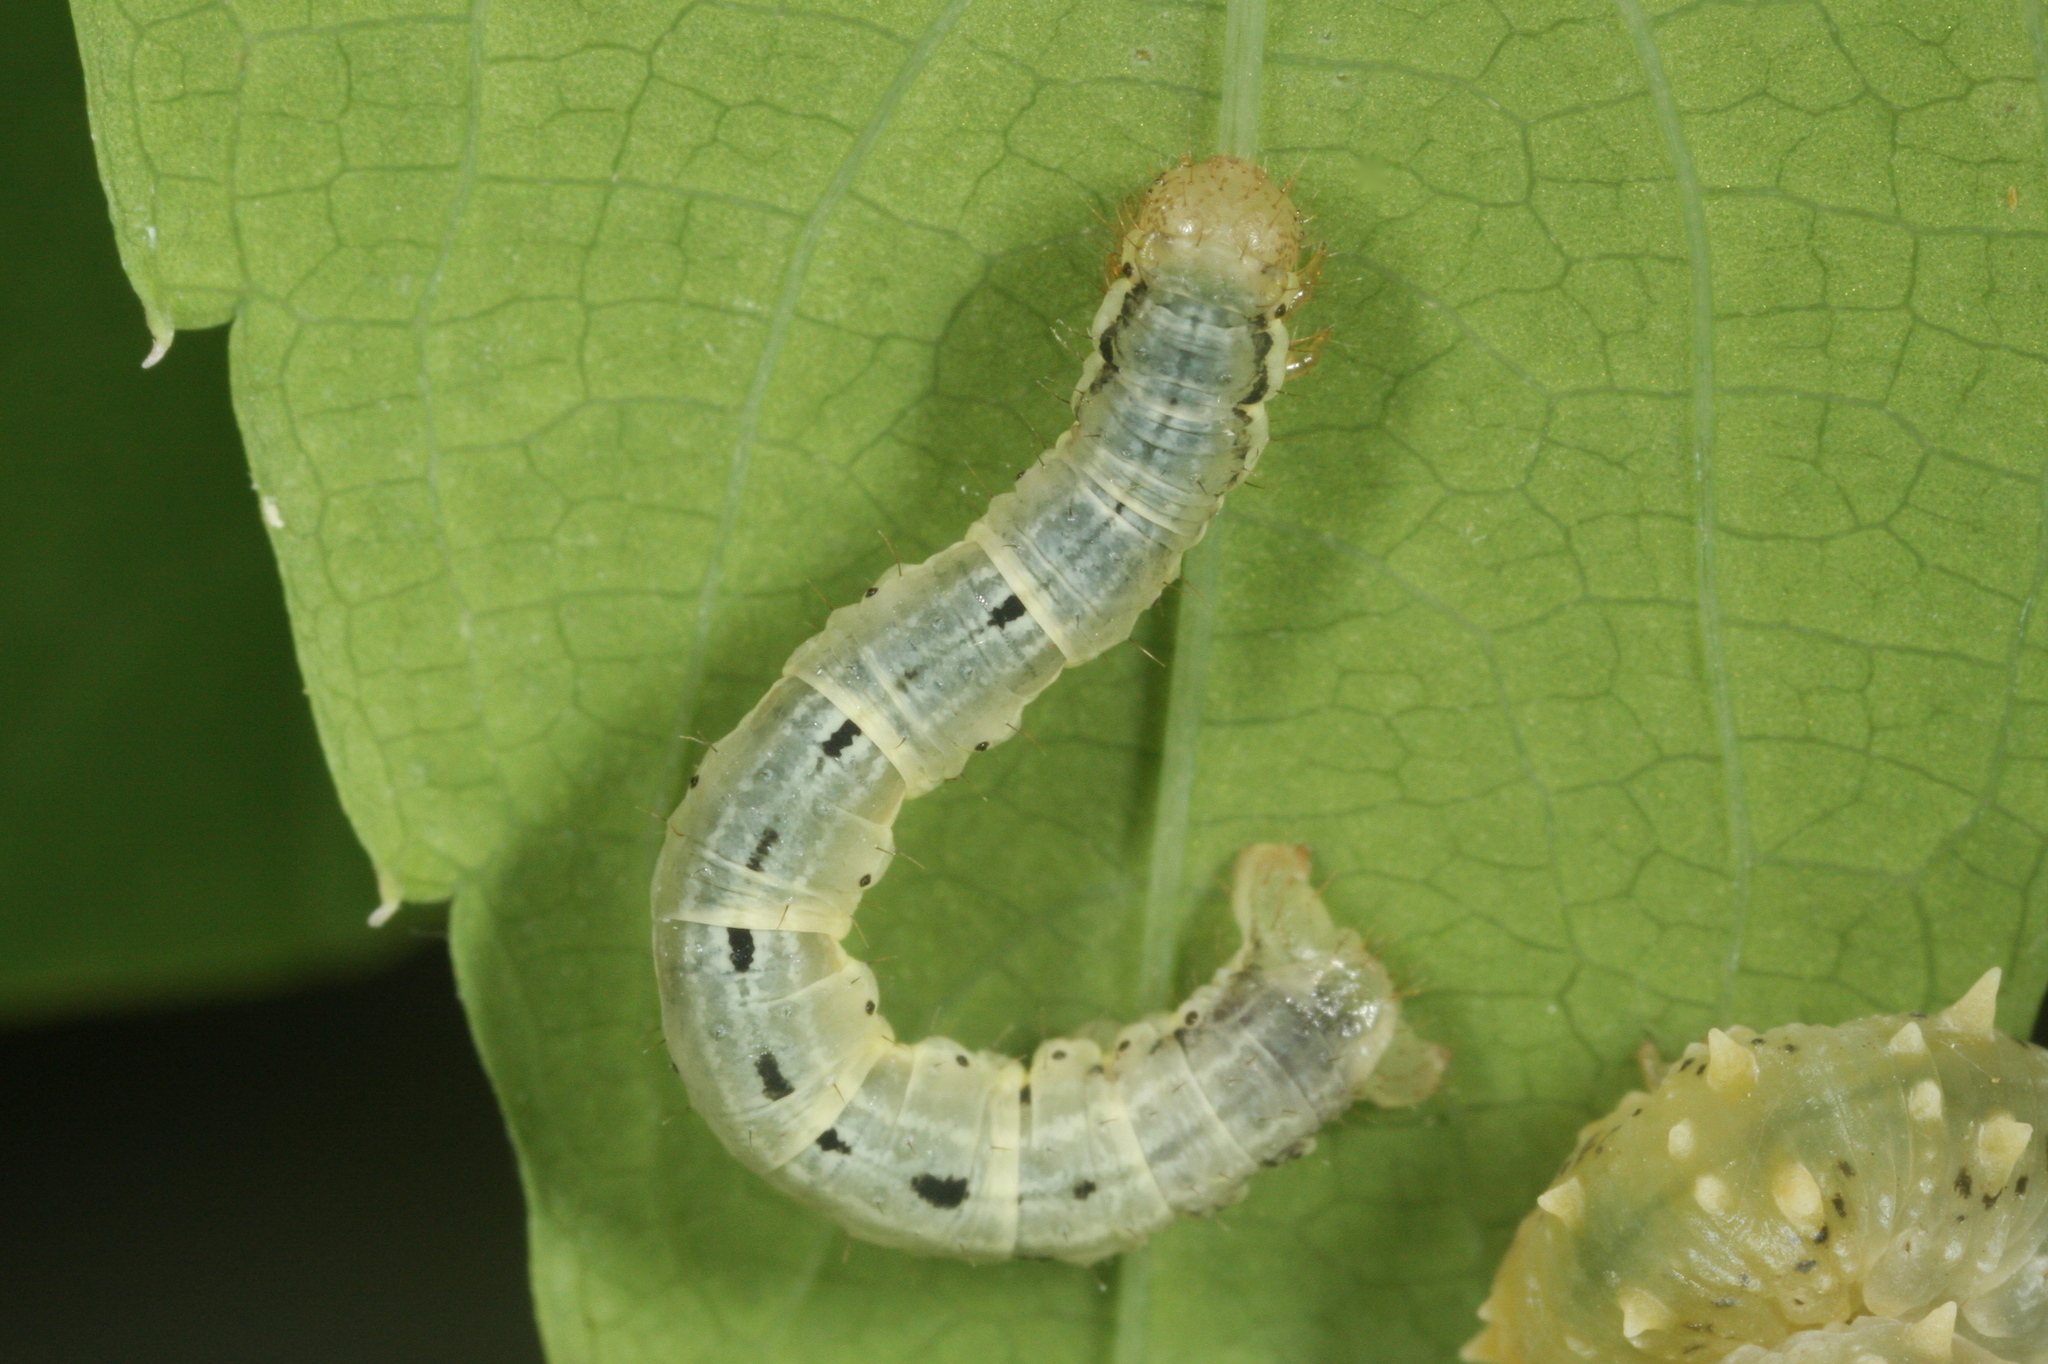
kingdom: Animalia
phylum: Arthropoda
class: Insecta
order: Lepidoptera
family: Geometridae
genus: Xanthorhoe
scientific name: Xanthorhoe biriviata
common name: Balsam carpet
